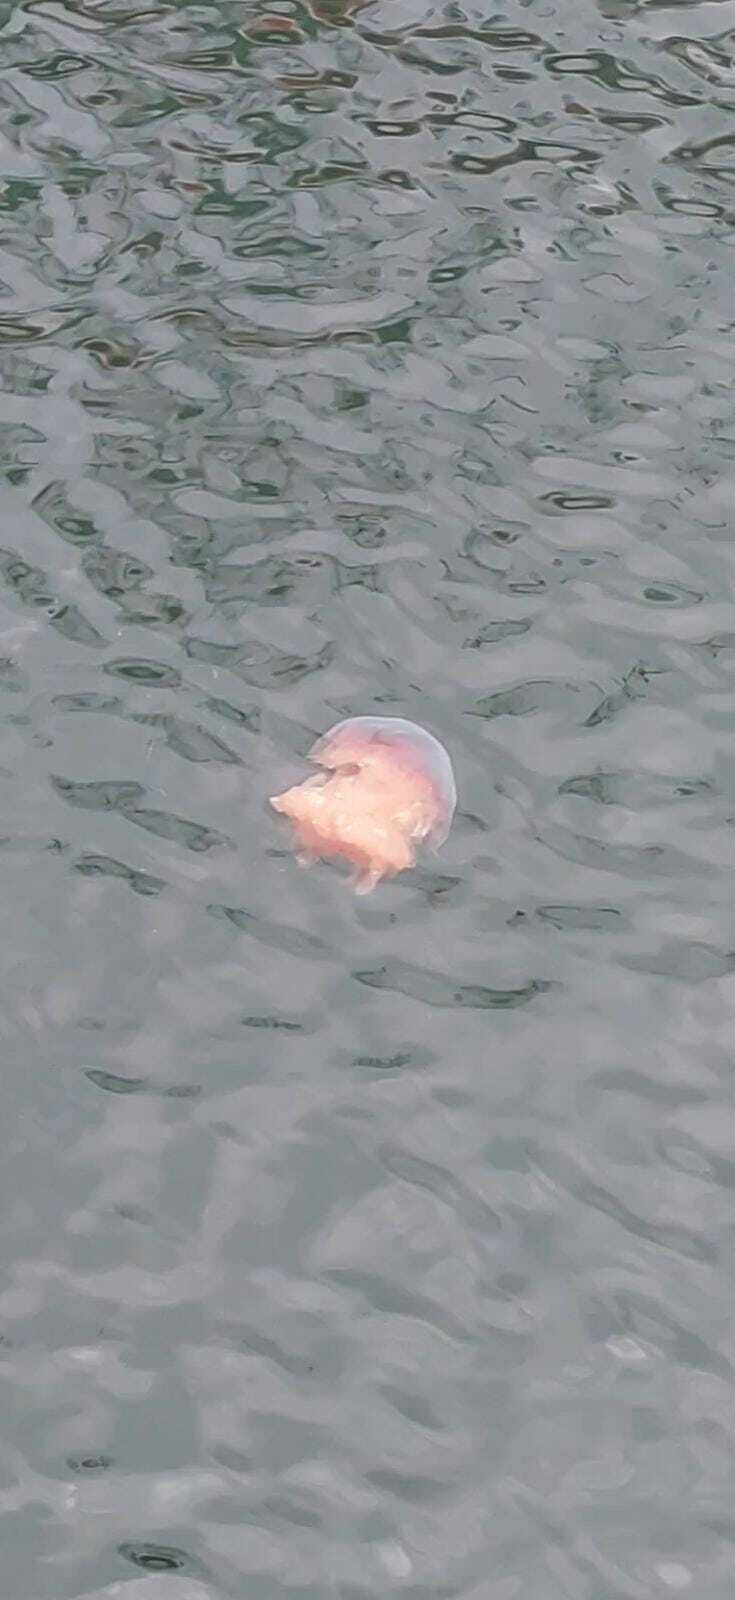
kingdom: Animalia
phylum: Cnidaria
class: Scyphozoa
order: Semaeostomeae
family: Cyaneidae
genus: Cyanea
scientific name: Cyanea capillata
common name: Lion's mane jellyfish
